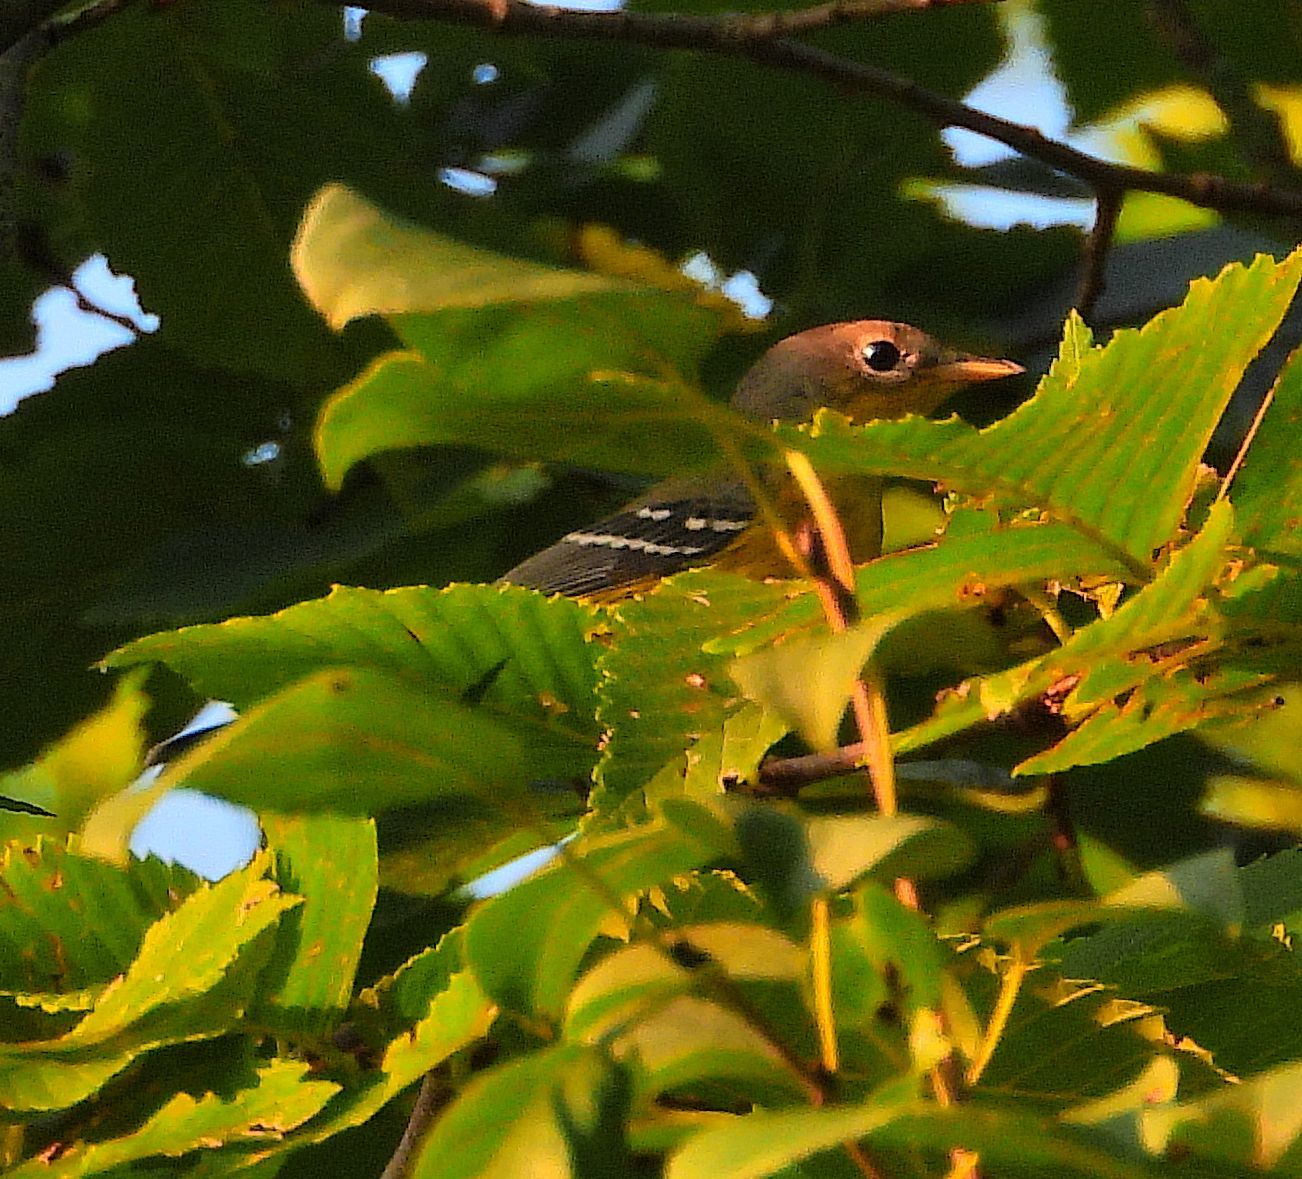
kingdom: Animalia
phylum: Chordata
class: Aves
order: Passeriformes
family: Parulidae
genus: Setophaga
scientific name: Setophaga magnolia
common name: Magnolia warbler
